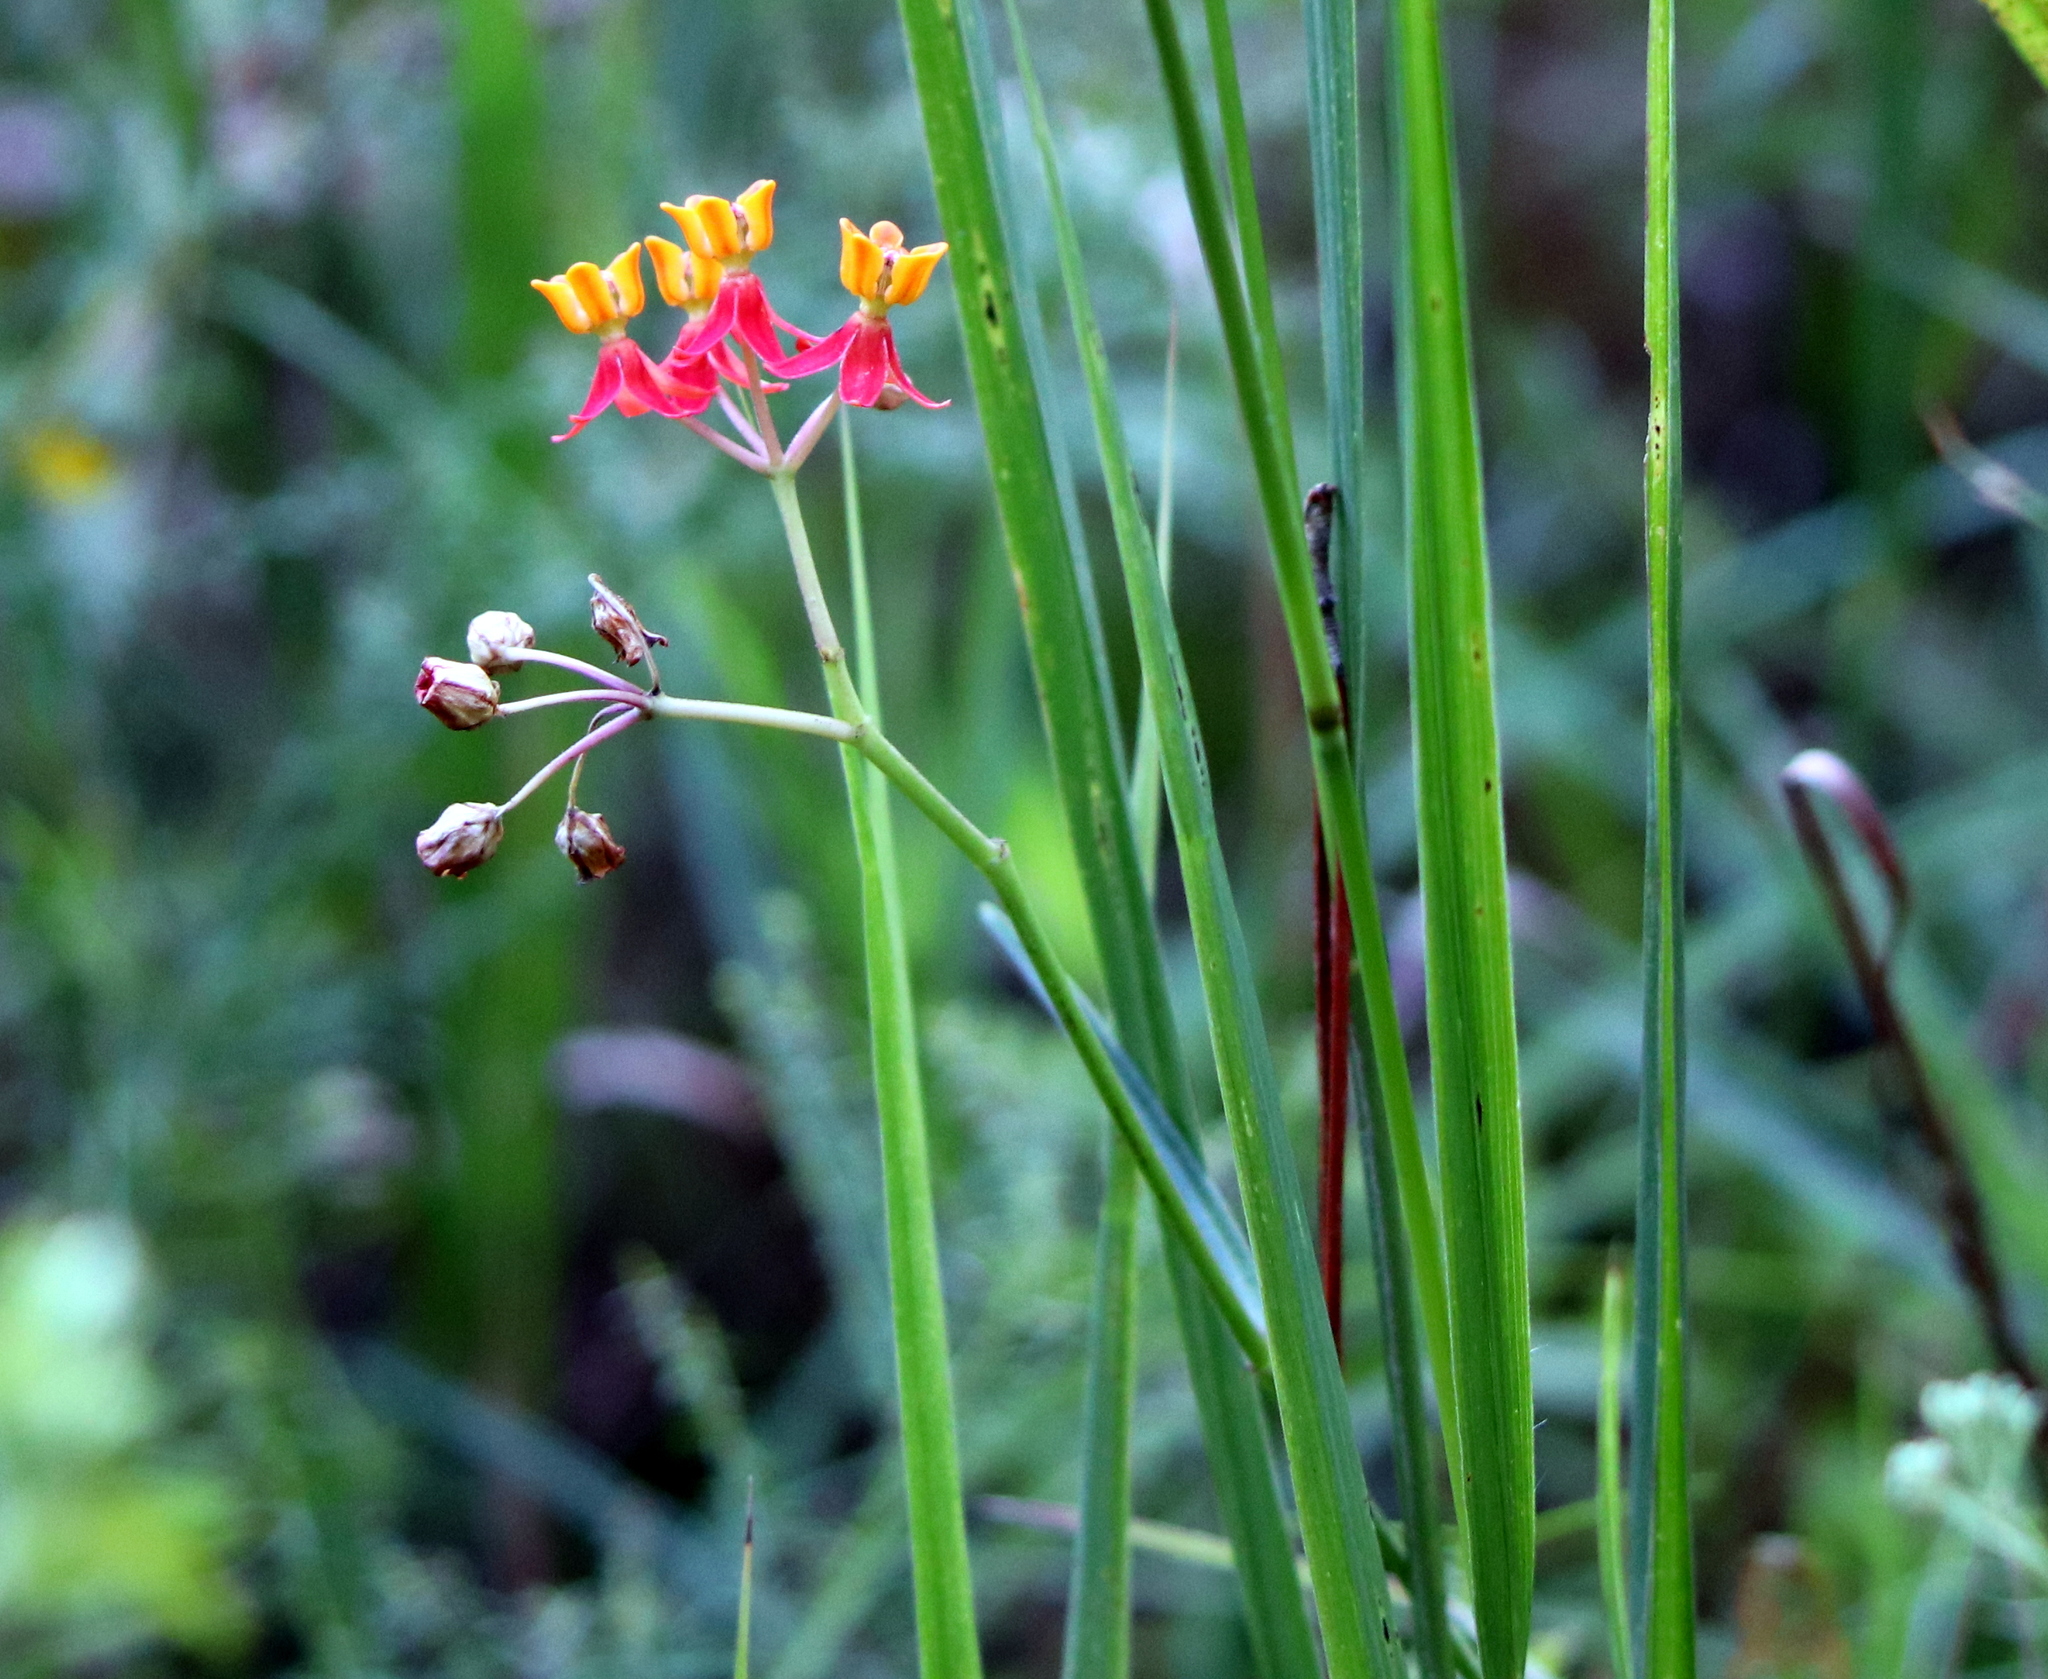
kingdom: Plantae
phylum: Tracheophyta
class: Magnoliopsida
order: Gentianales
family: Apocynaceae
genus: Asclepias
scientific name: Asclepias lanceolata
